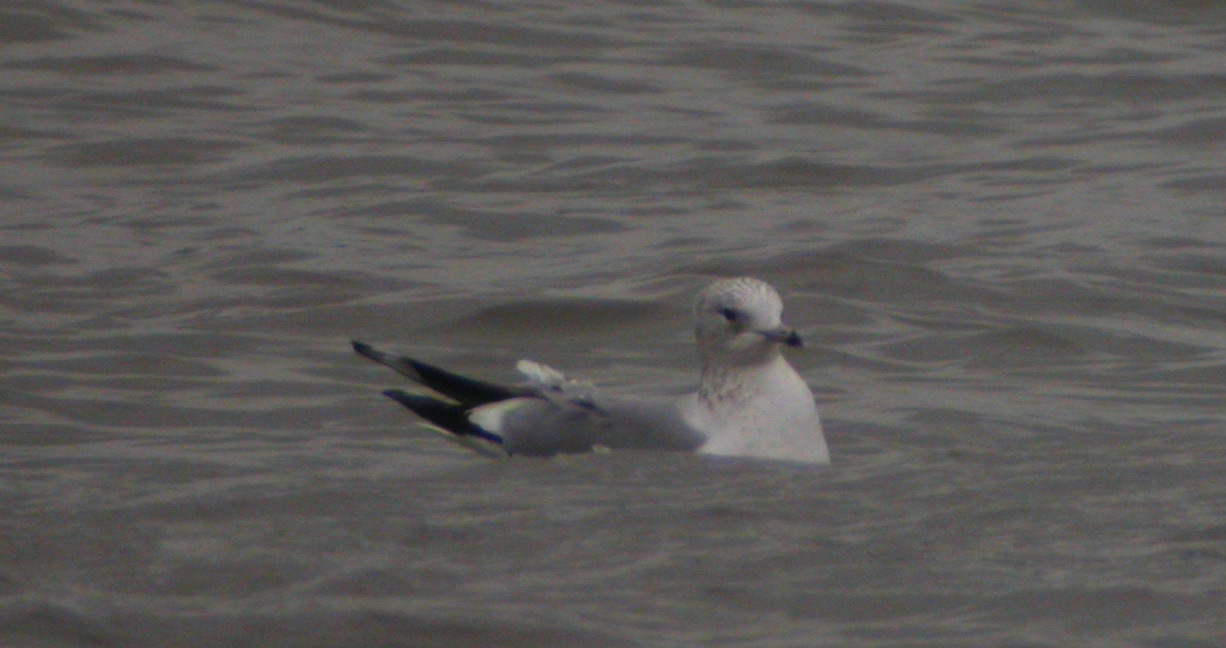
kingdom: Animalia
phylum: Chordata
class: Aves
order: Charadriiformes
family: Laridae
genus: Larus
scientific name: Larus canus
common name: Mew gull
